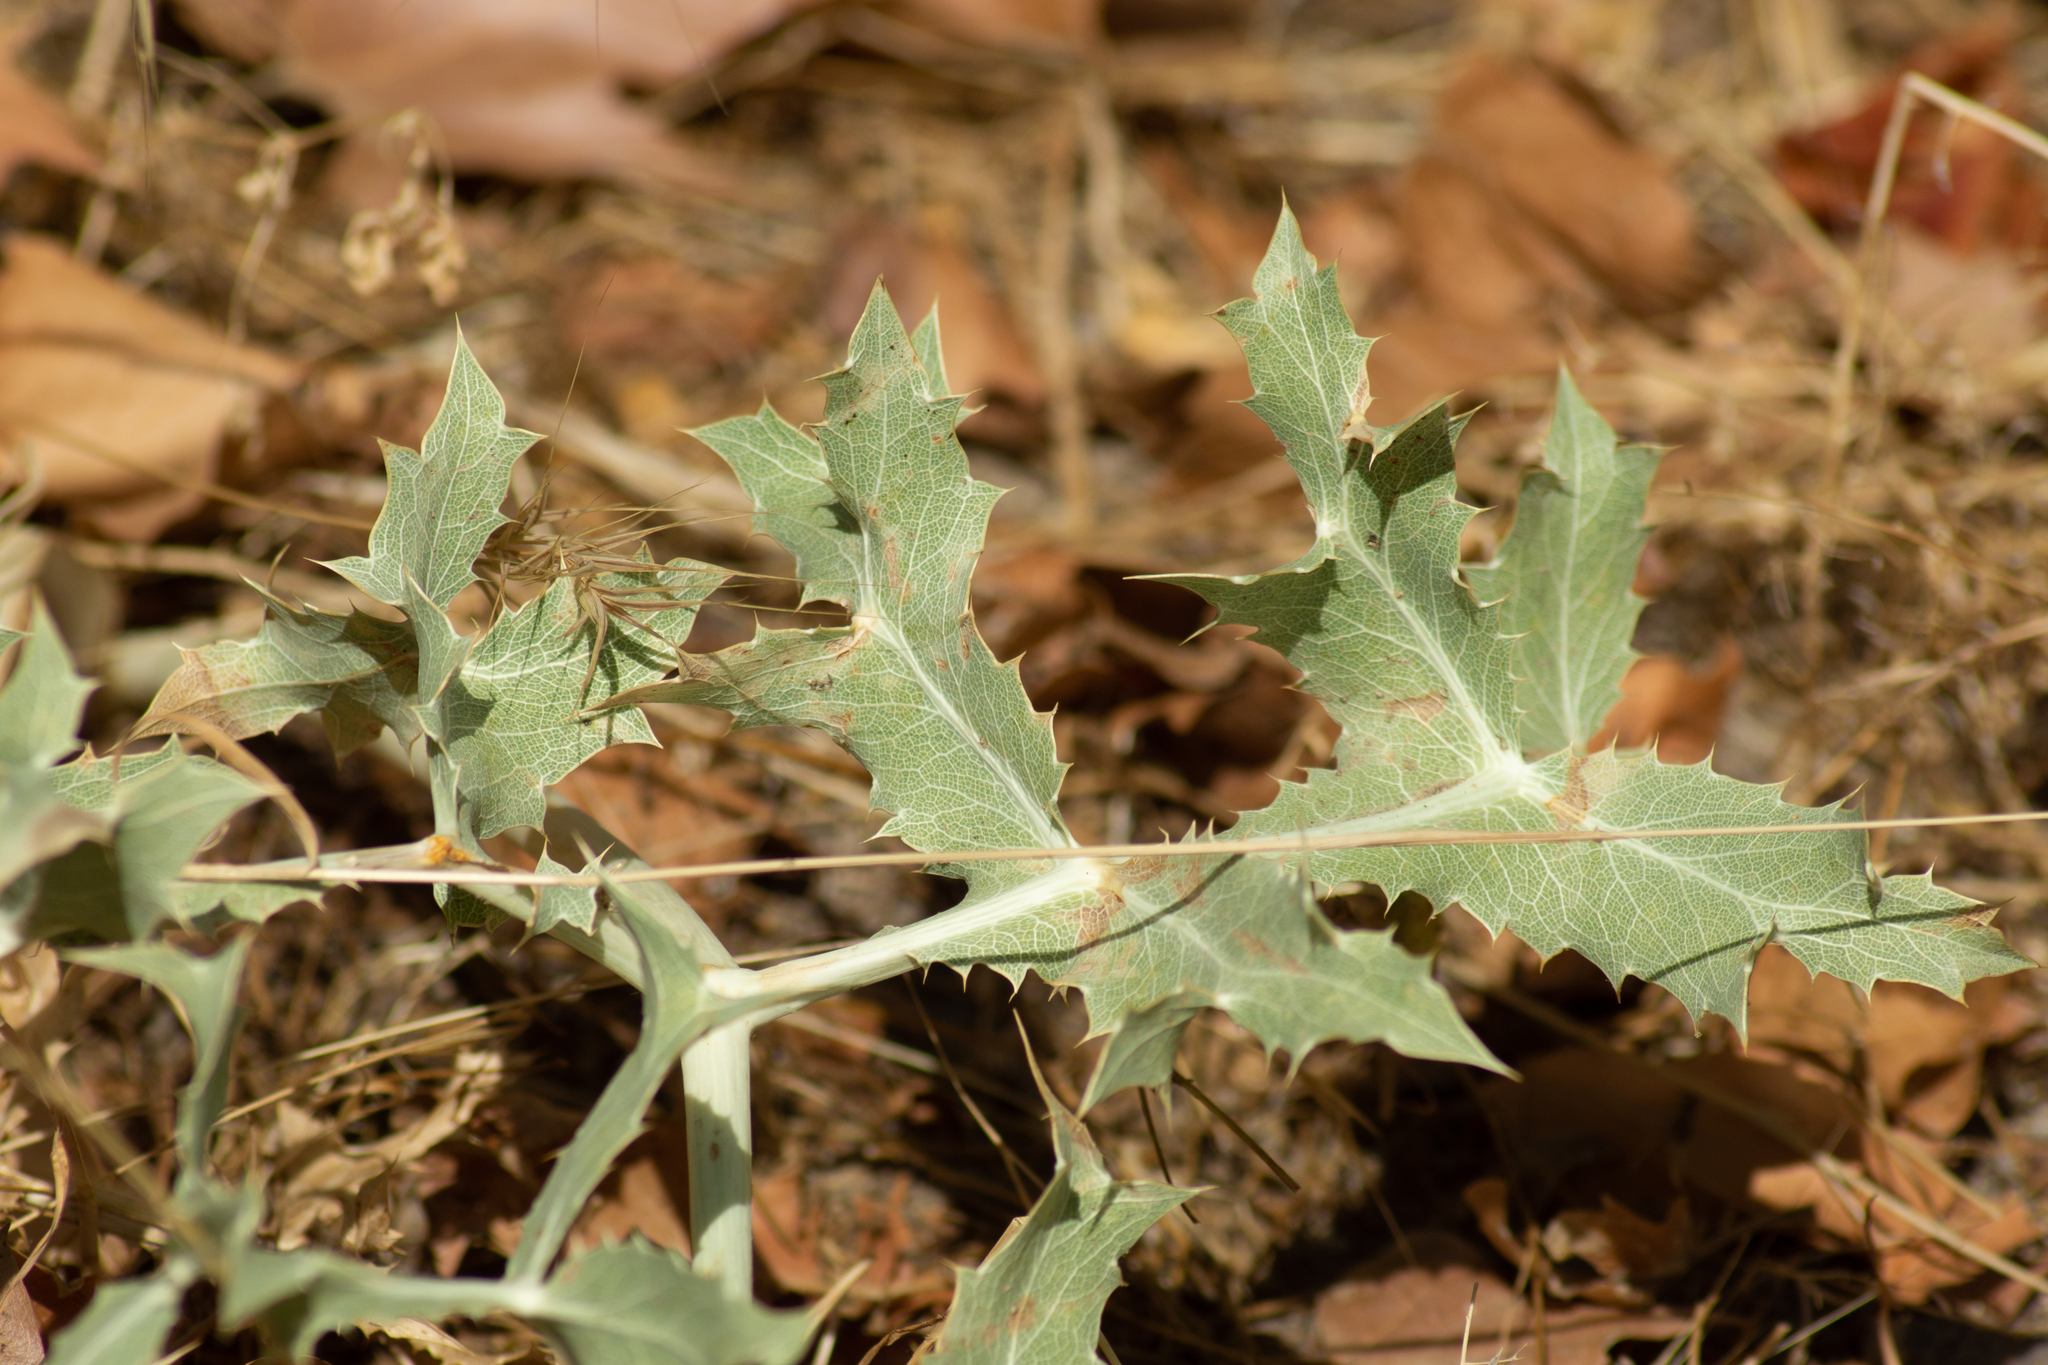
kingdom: Plantae
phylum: Tracheophyta
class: Magnoliopsida
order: Apiales
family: Apiaceae
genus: Eryngium
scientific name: Eryngium campestre
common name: Field eryngo
